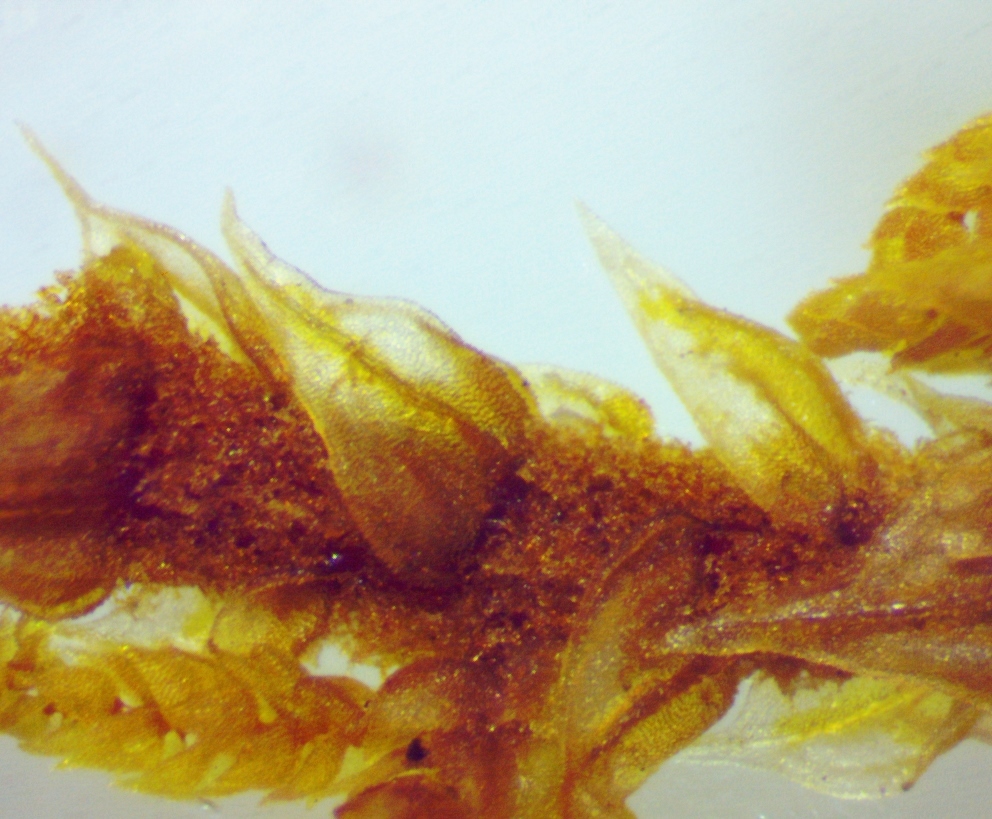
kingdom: Plantae
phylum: Bryophyta
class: Bryopsida
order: Hypnales
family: Thuidiaceae
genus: Thuidium
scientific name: Thuidium delicatulum
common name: Delicate fern moss
